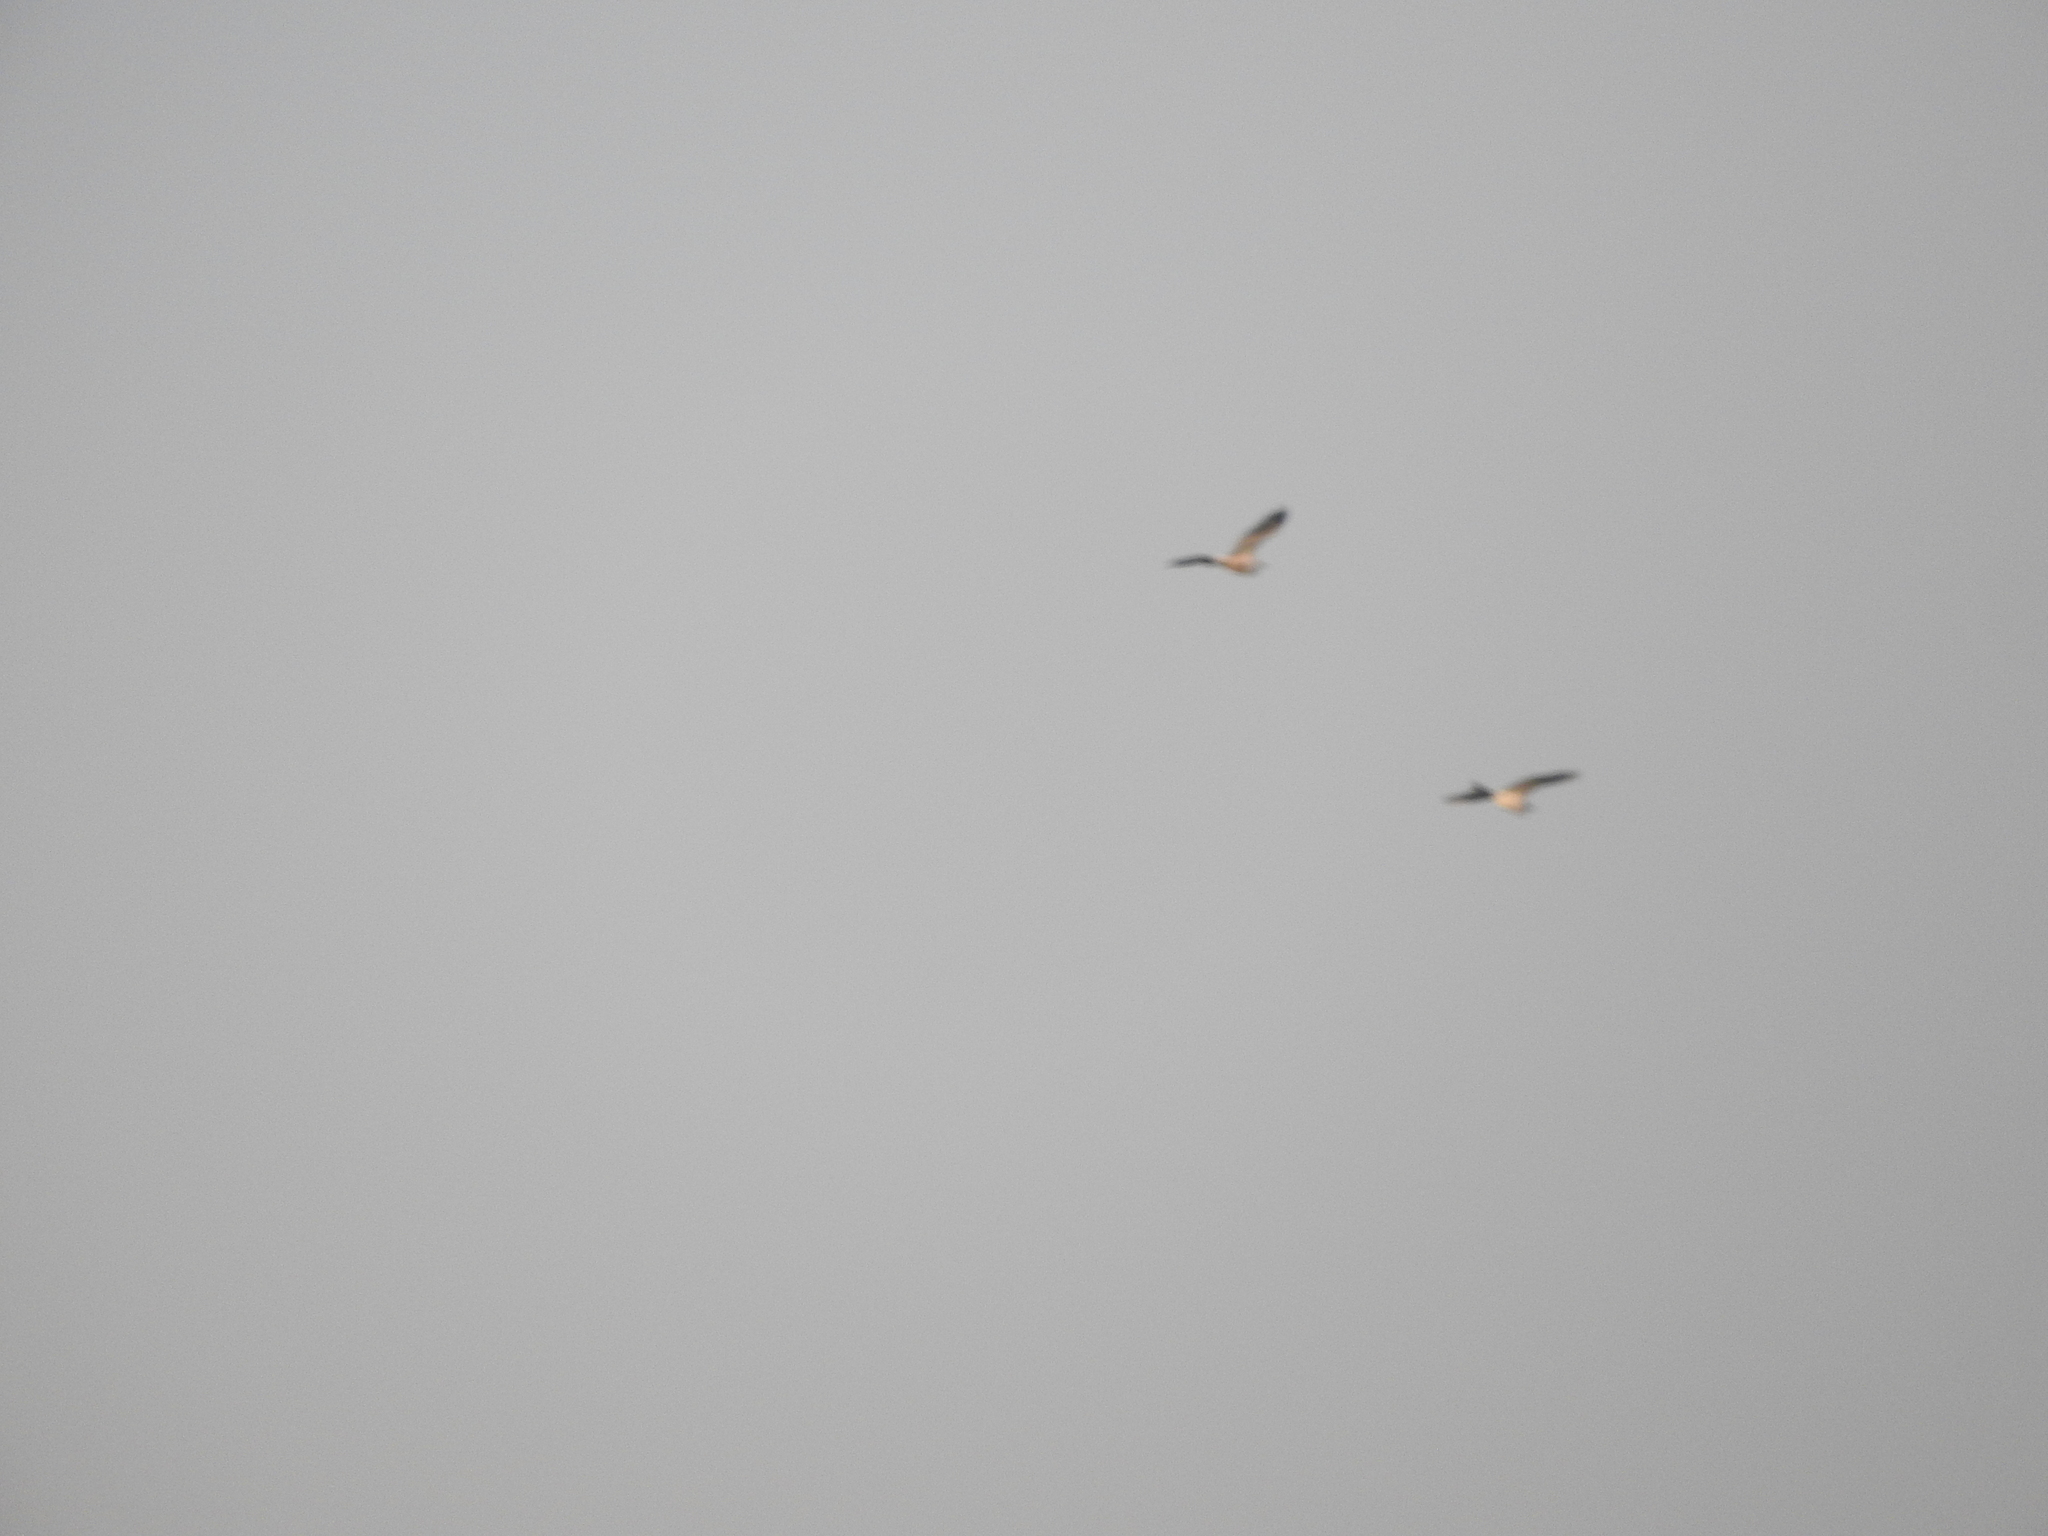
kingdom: Animalia
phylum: Chordata
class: Aves
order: Pelecaniformes
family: Ardeidae
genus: Bubulcus
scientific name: Bubulcus ibis
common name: Cattle egret
